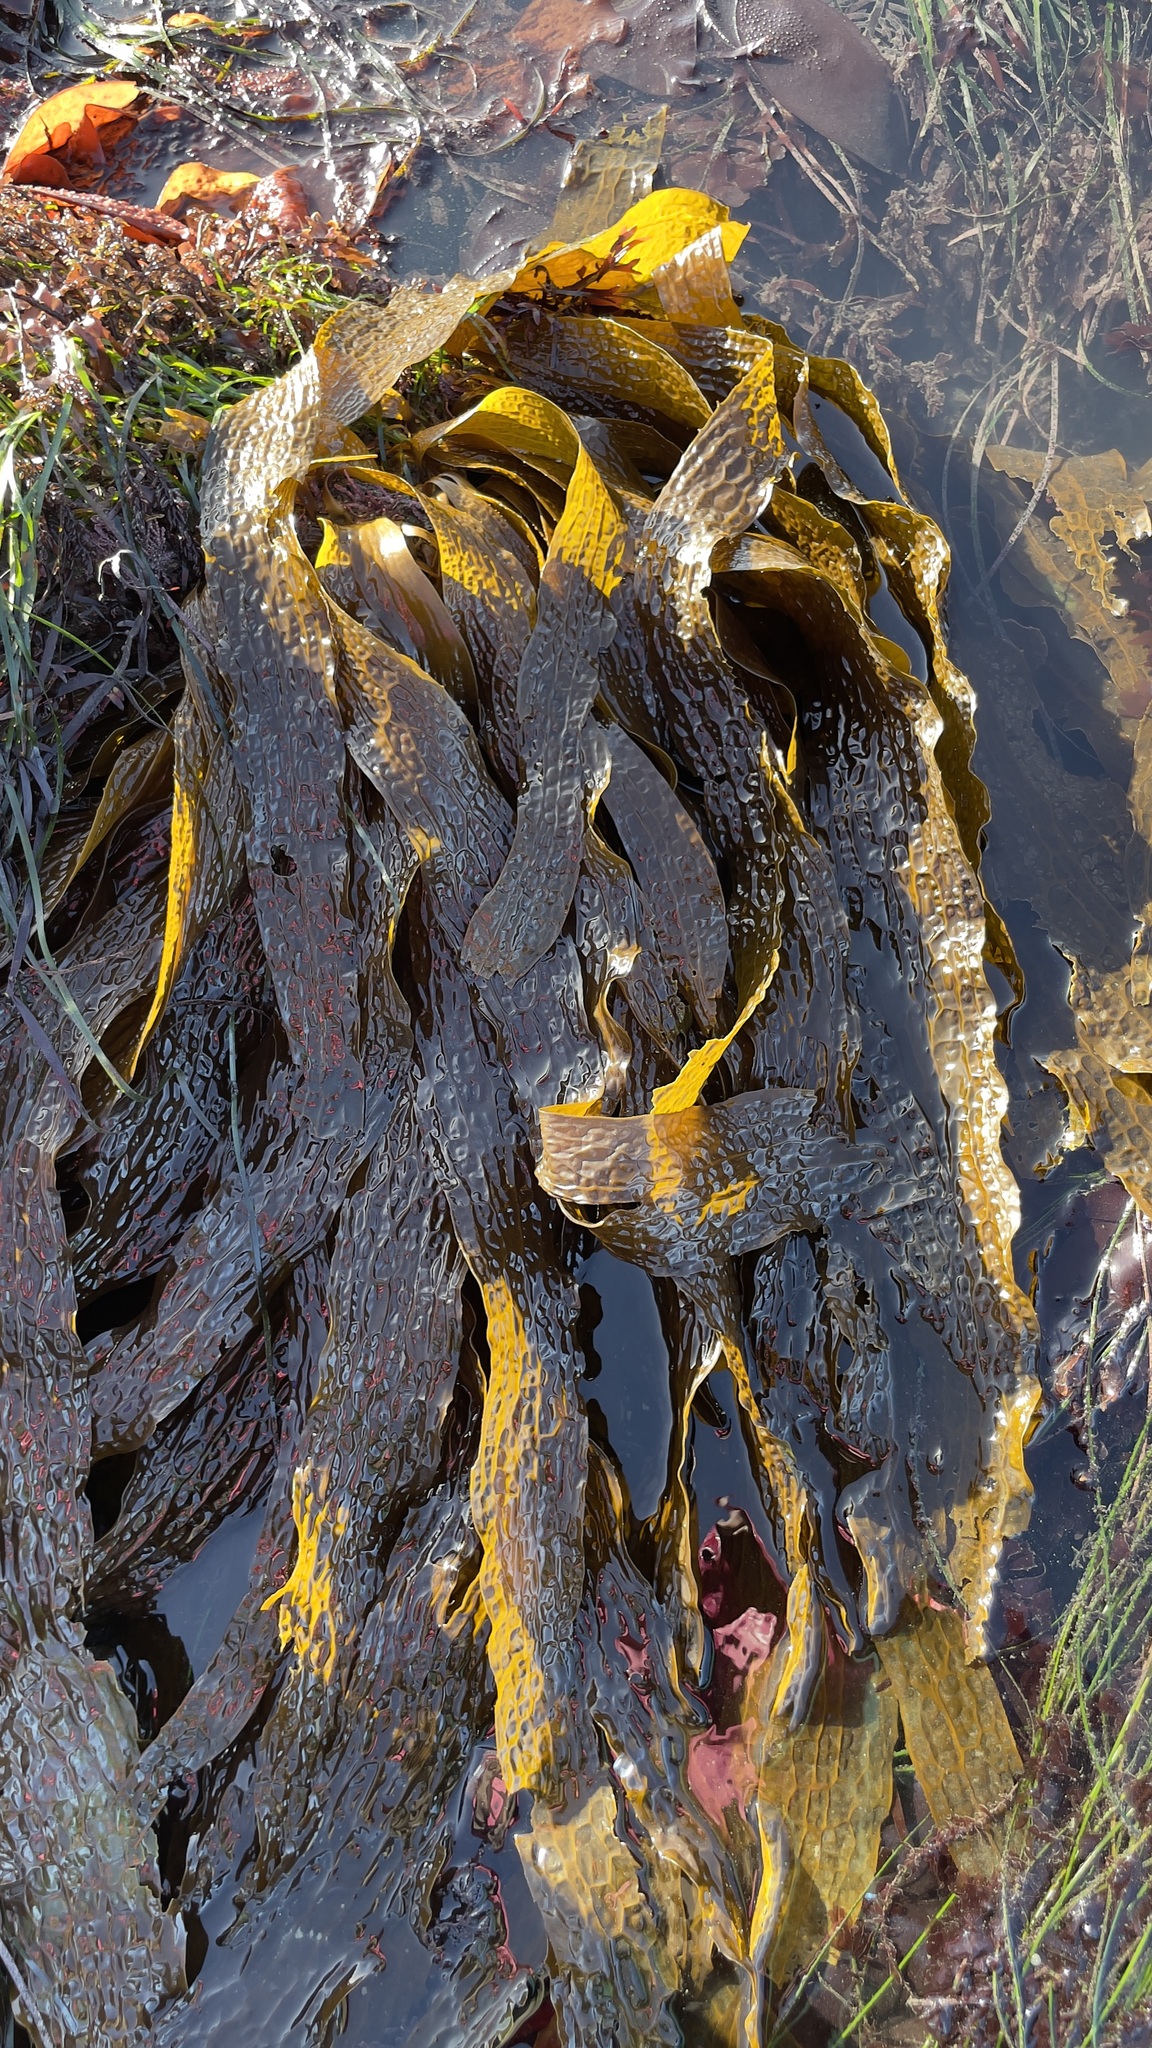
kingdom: Chromista
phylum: Ochrophyta
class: Phaeophyceae
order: Laminariales
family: Costariaceae
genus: Dictyoneurum
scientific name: Dictyoneurum californicum
